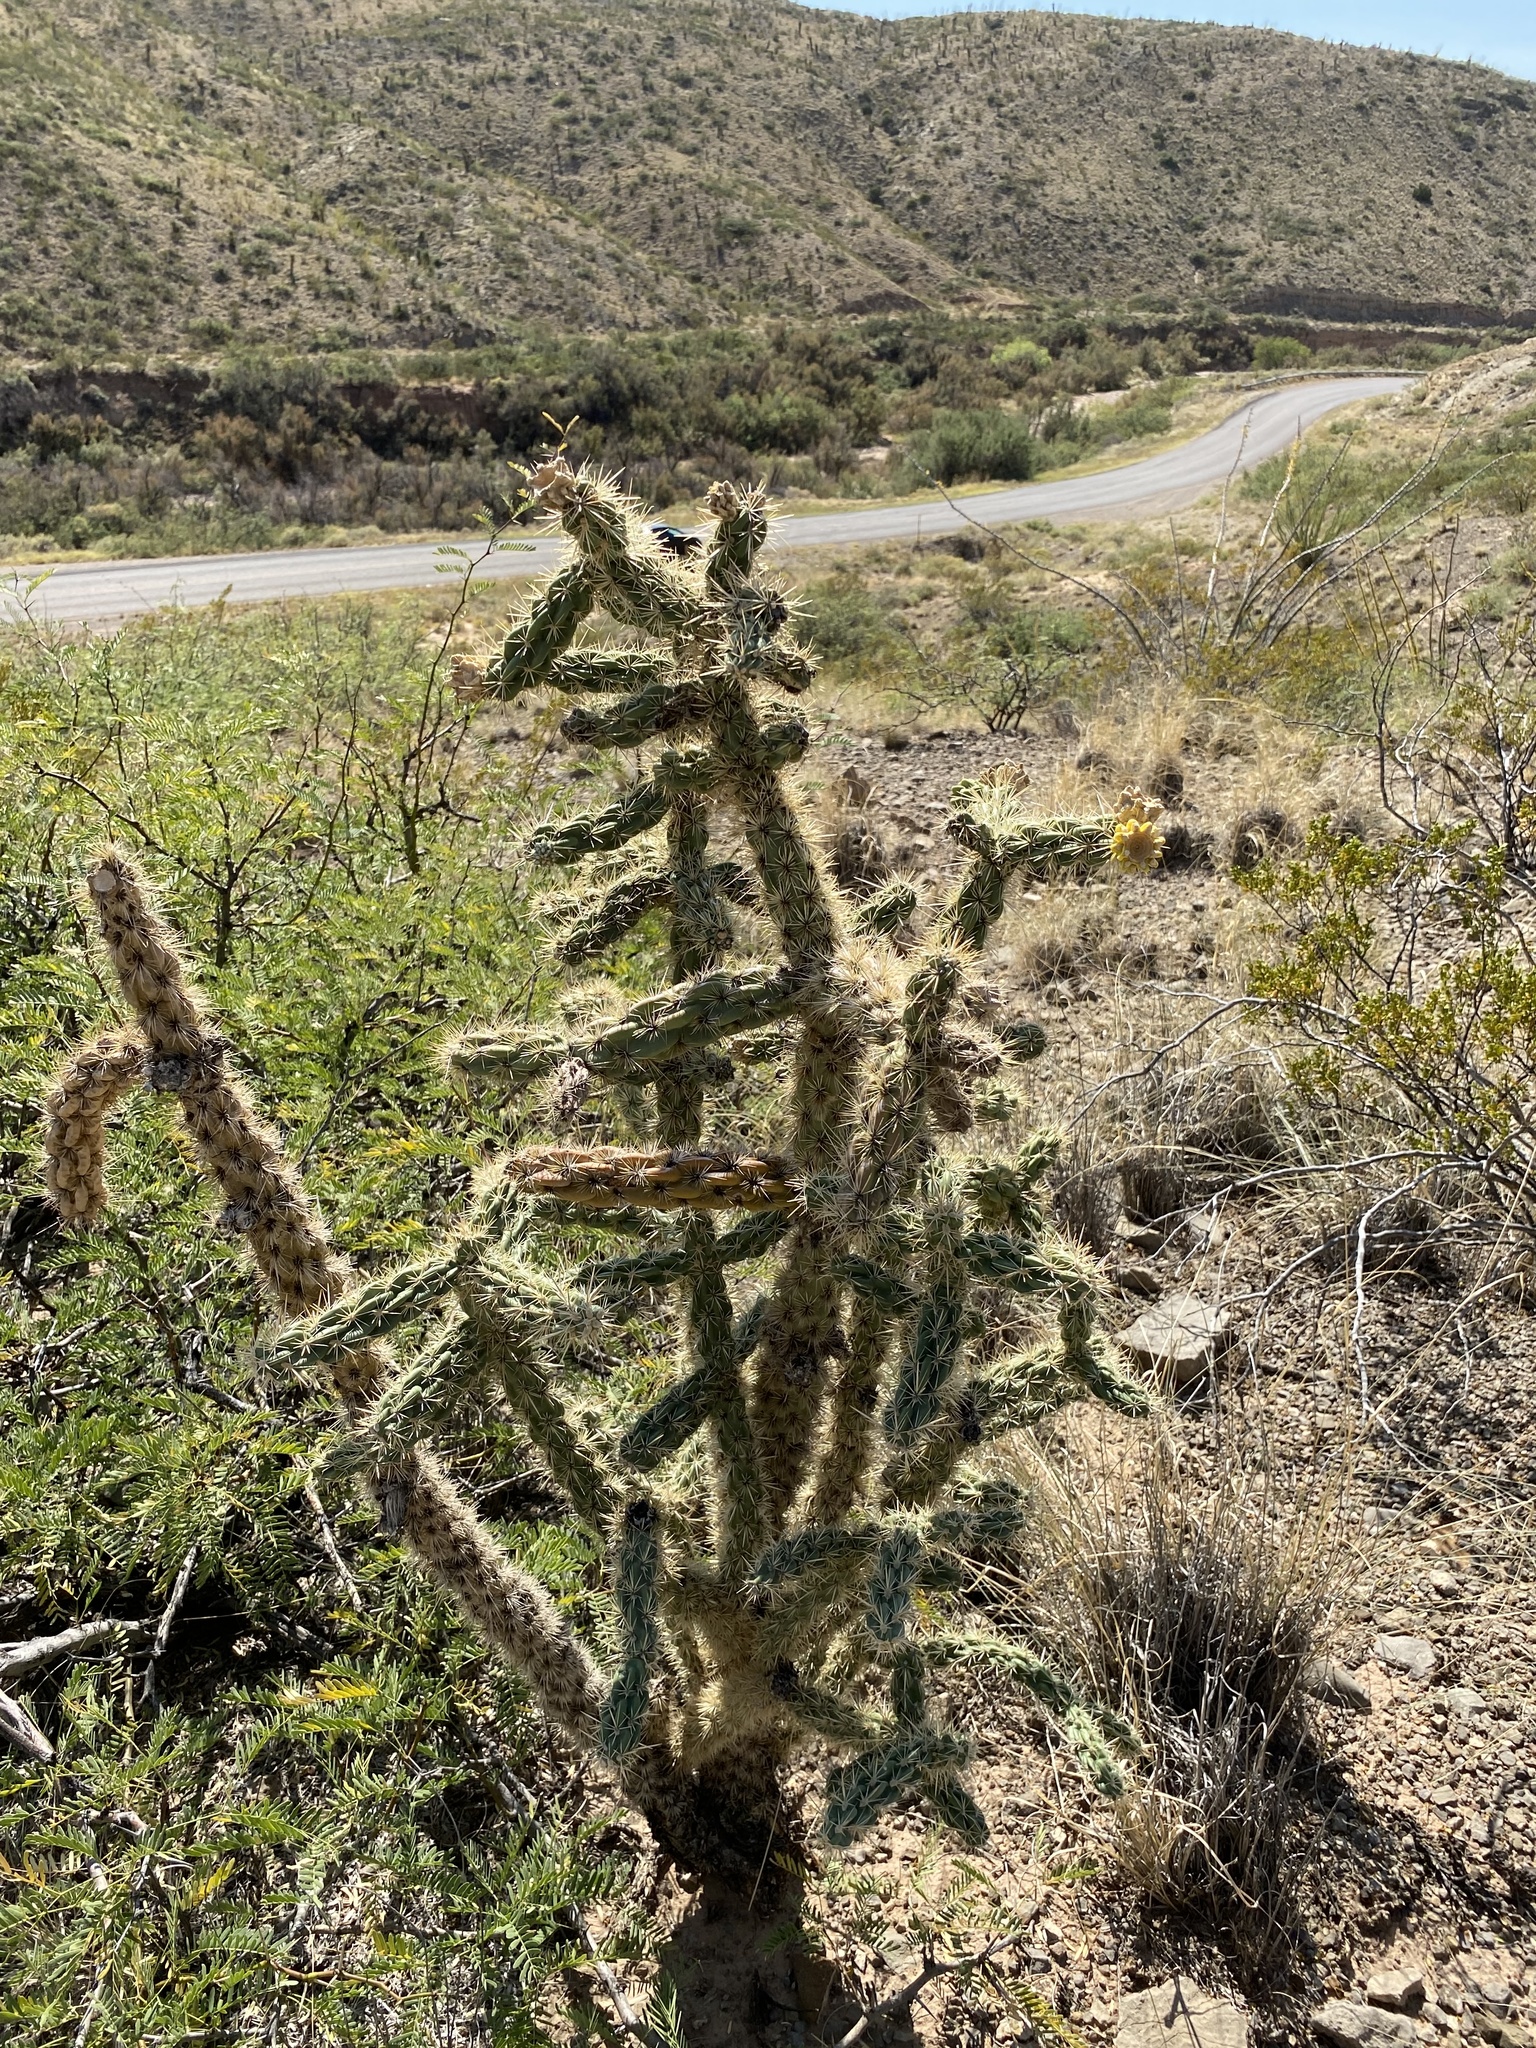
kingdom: Plantae
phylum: Tracheophyta
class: Magnoliopsida
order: Caryophyllales
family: Cactaceae
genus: Cylindropuntia
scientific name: Cylindropuntia imbricata
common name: Candelabrum cactus
